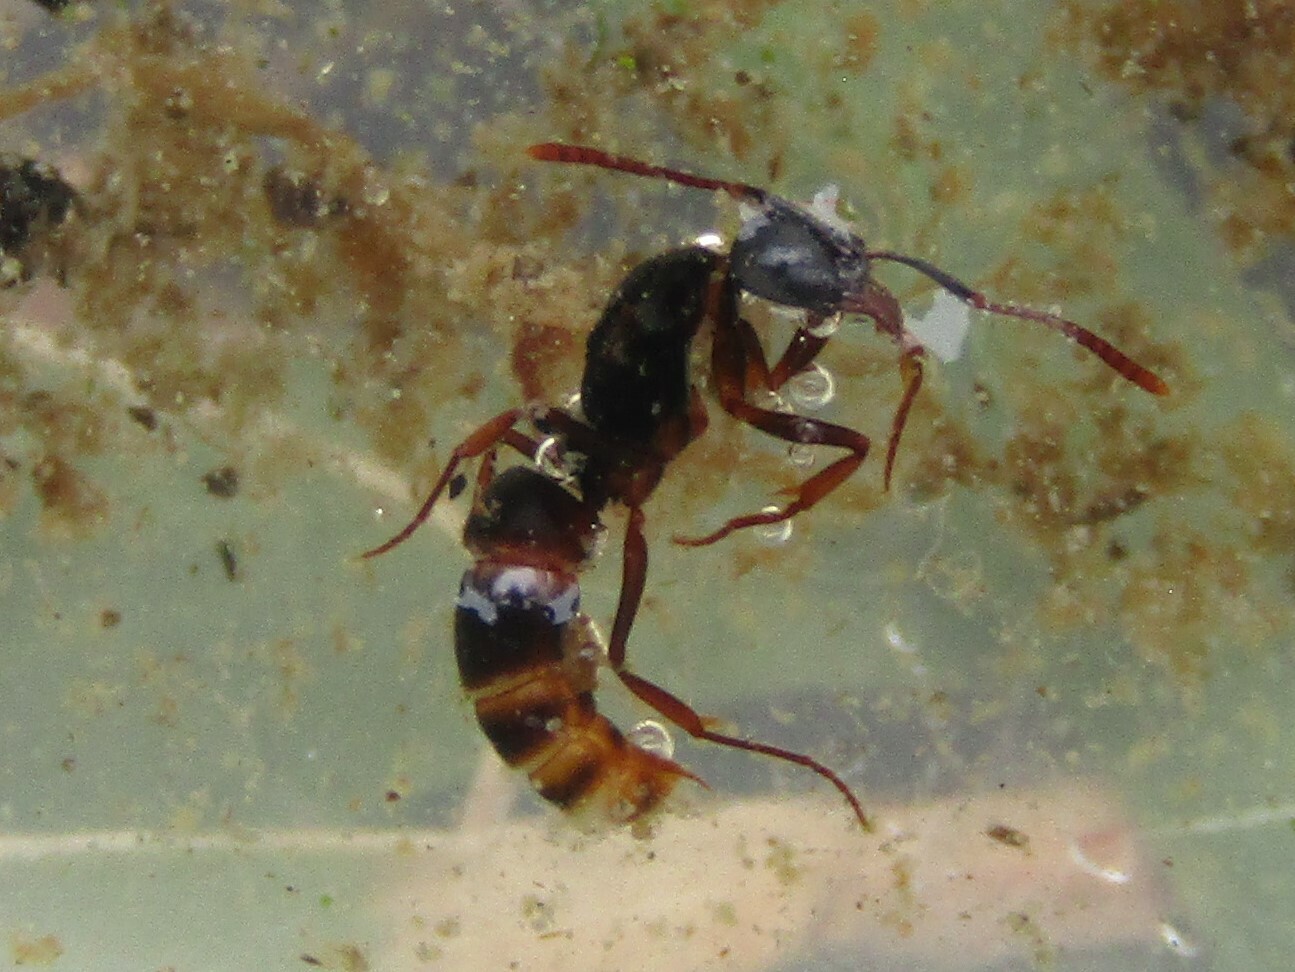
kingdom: Animalia
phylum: Arthropoda
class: Insecta
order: Hymenoptera
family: Formicidae
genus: Pachycondyla
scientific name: Pachycondyla chinensis
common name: Asian needle ant
